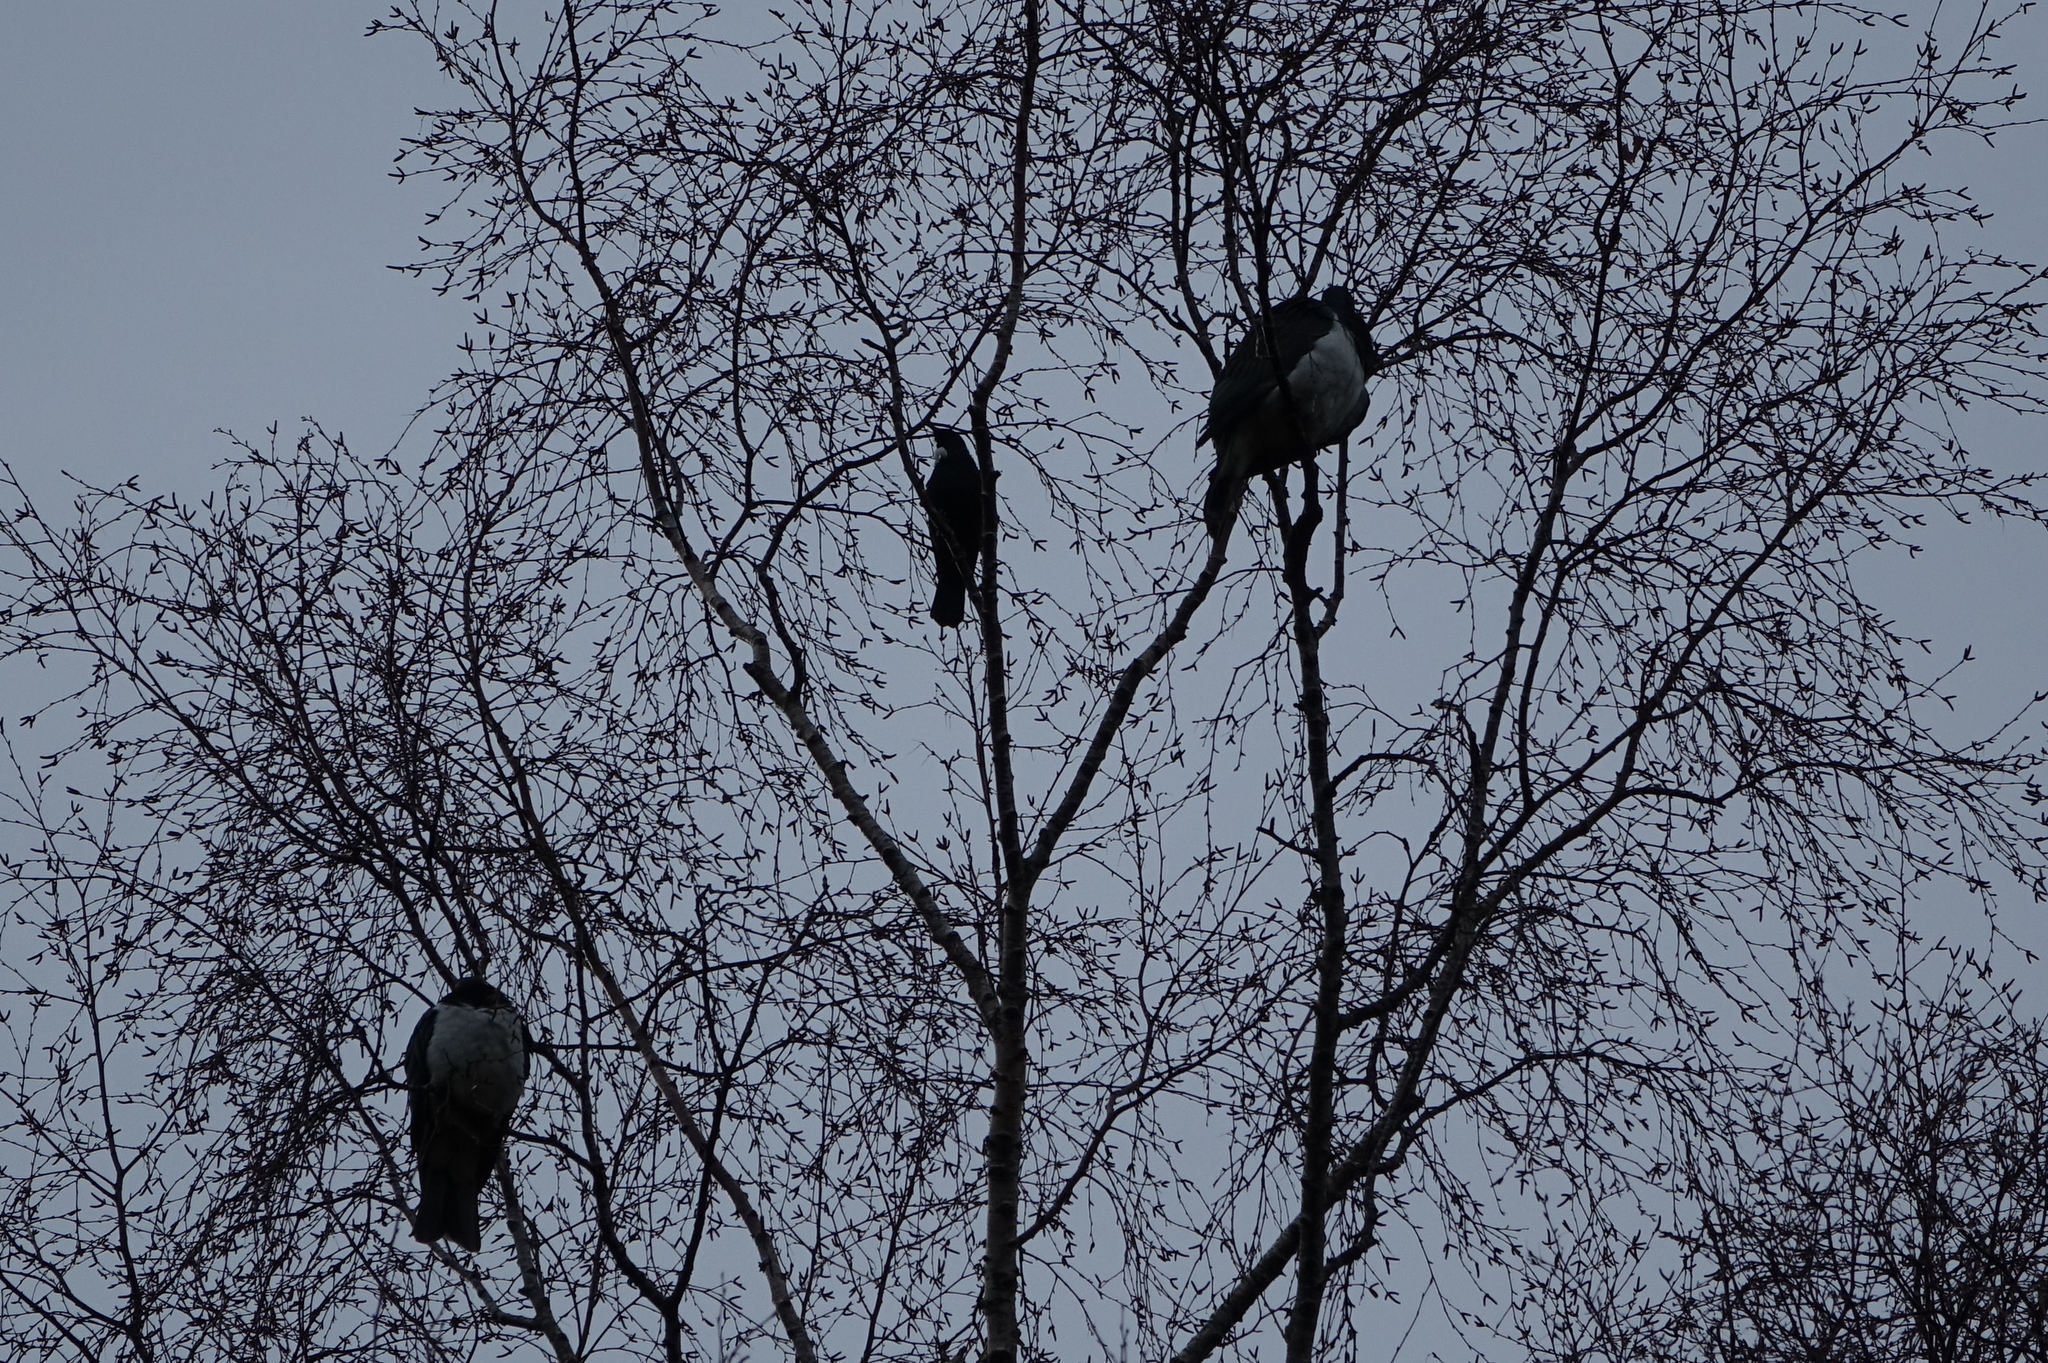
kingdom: Animalia
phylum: Chordata
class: Aves
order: Passeriformes
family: Meliphagidae
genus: Prosthemadera
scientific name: Prosthemadera novaeseelandiae
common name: Tui
